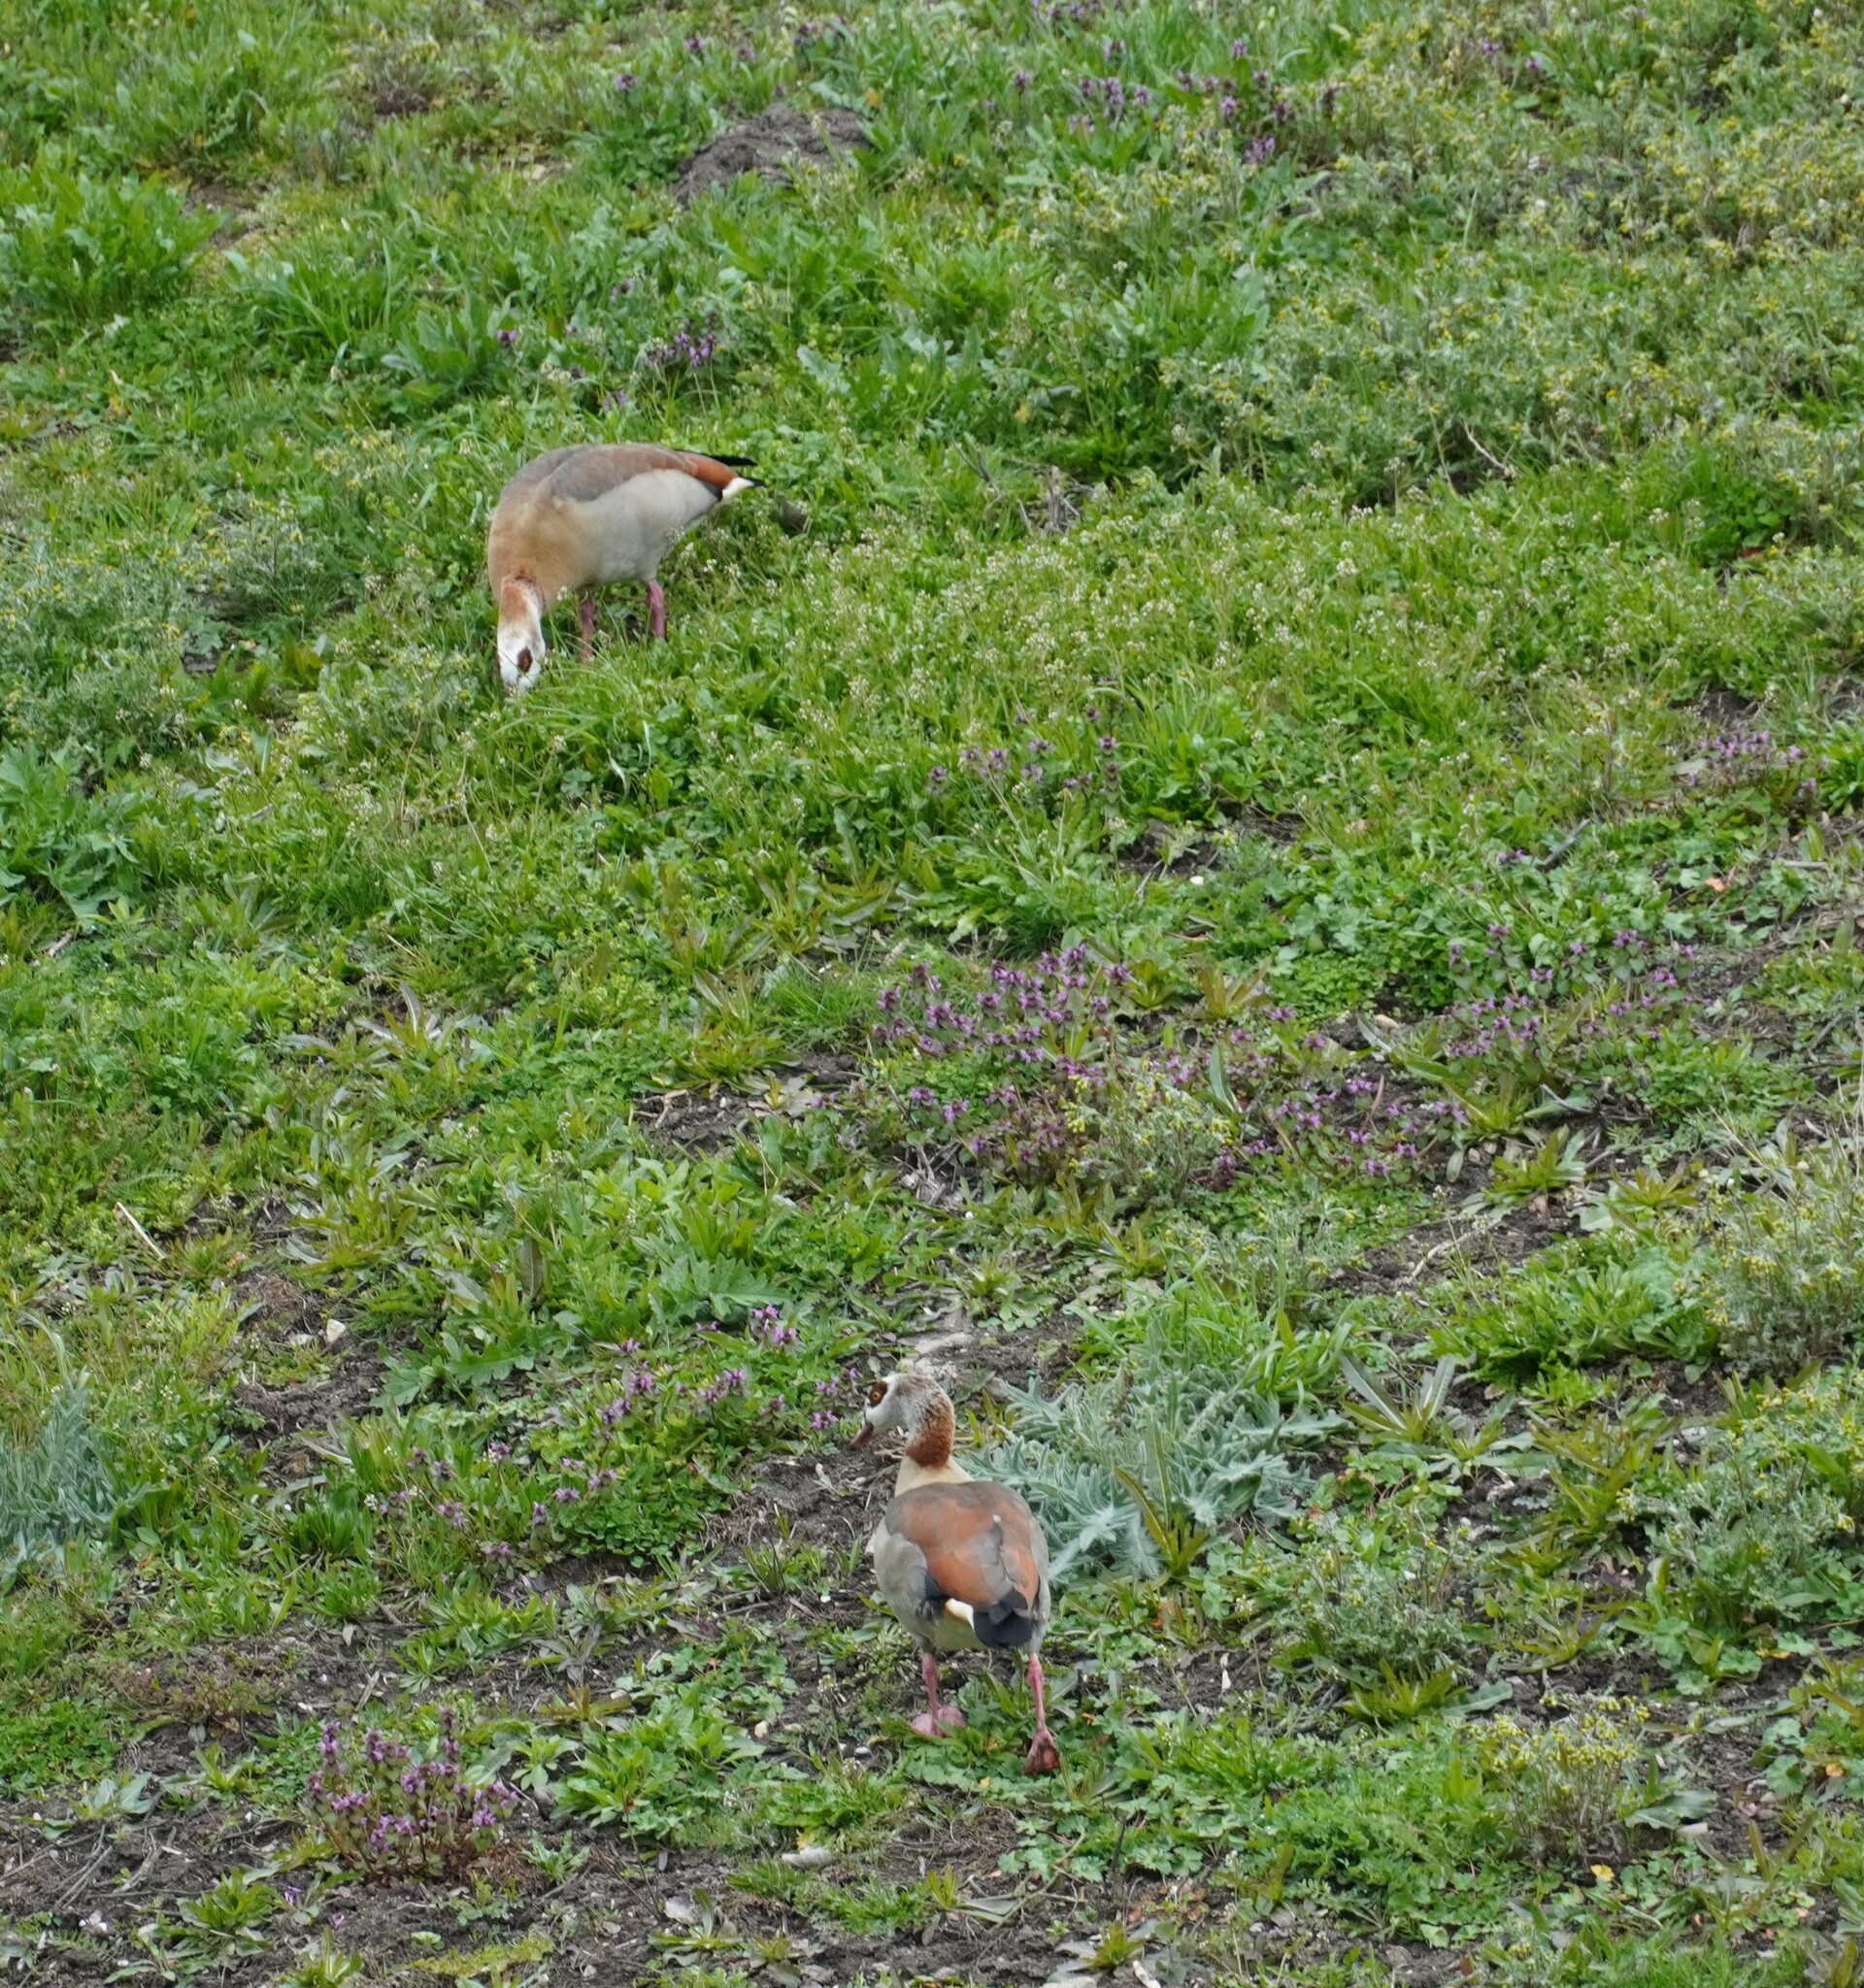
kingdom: Animalia
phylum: Chordata
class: Aves
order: Anseriformes
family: Anatidae
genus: Alopochen
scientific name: Alopochen aegyptiaca
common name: Egyptian goose
